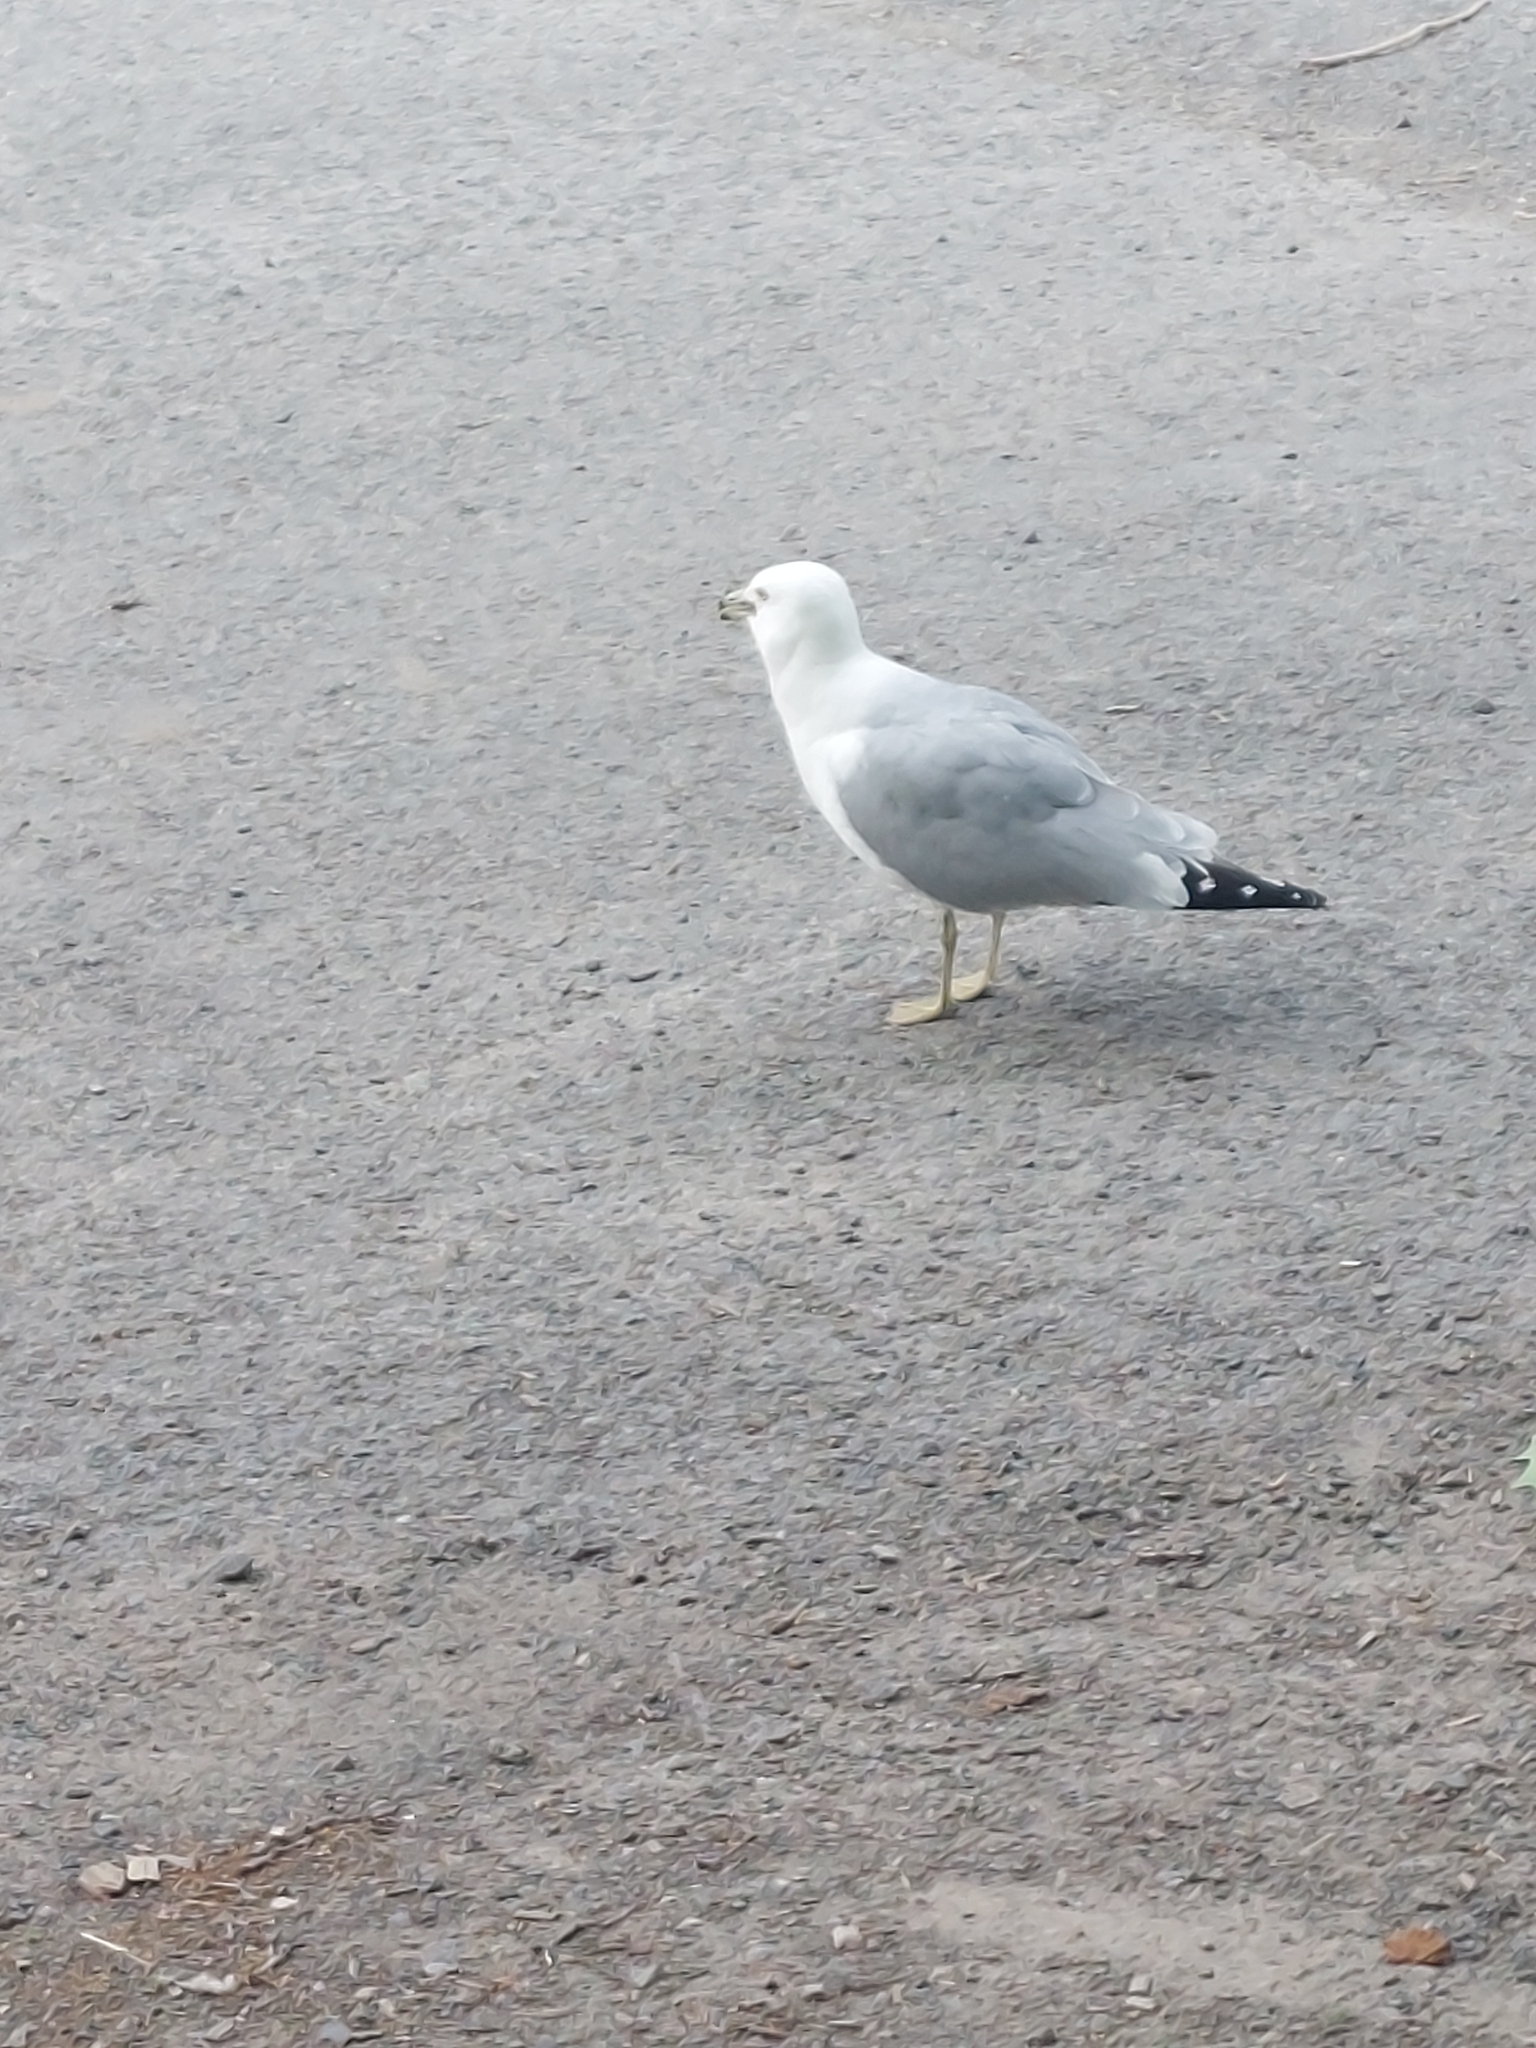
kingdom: Animalia
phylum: Chordata
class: Aves
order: Charadriiformes
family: Laridae
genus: Larus
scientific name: Larus delawarensis
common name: Ring-billed gull
